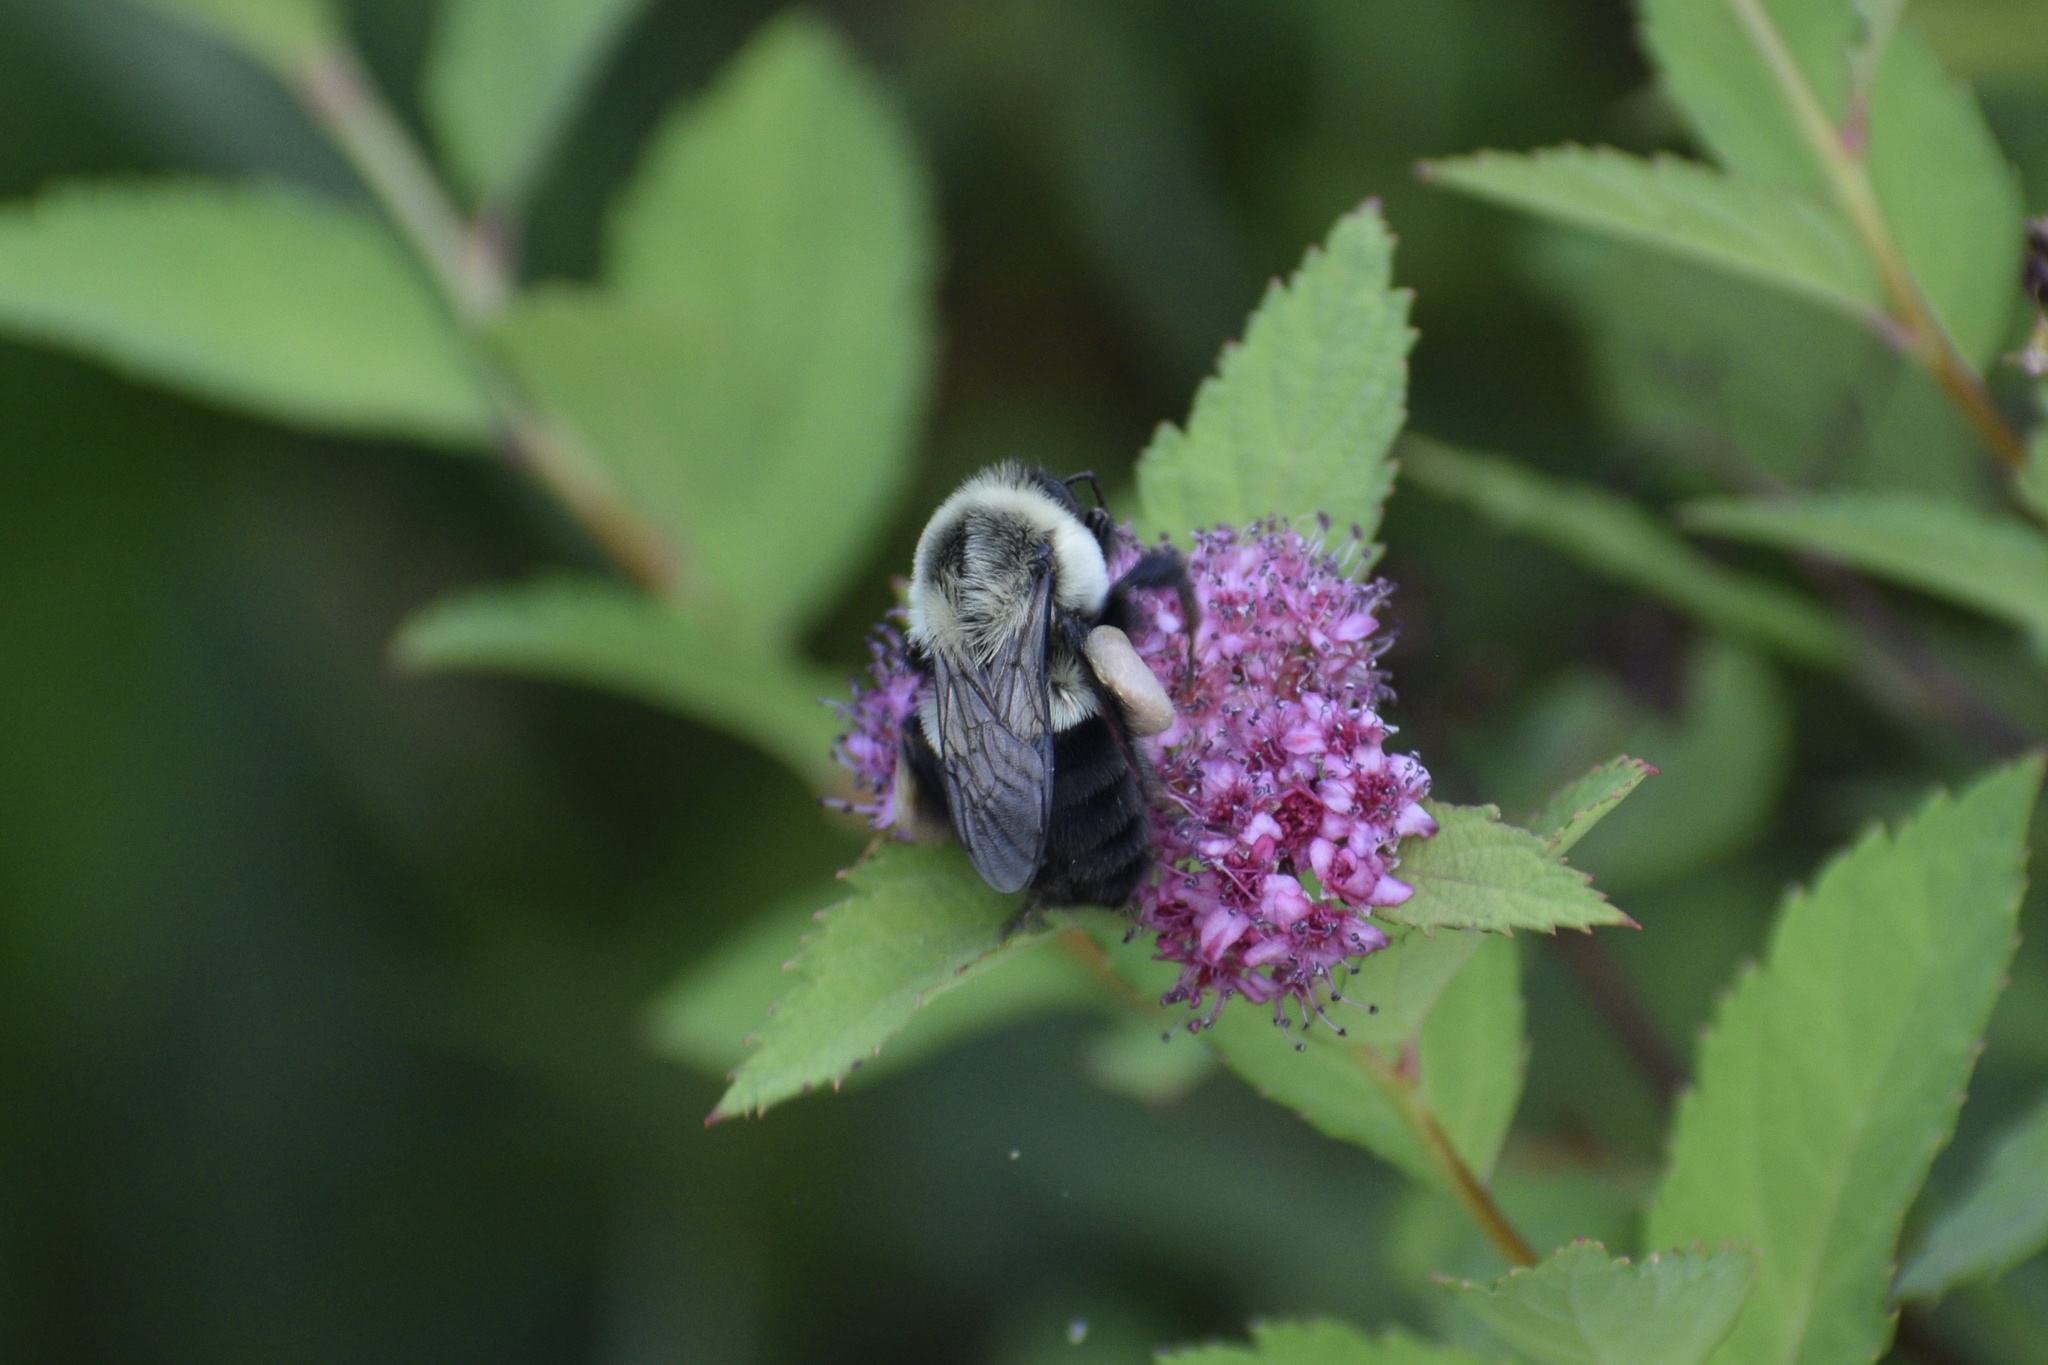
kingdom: Animalia
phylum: Arthropoda
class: Insecta
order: Hymenoptera
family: Apidae
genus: Bombus
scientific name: Bombus impatiens
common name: Common eastern bumble bee
